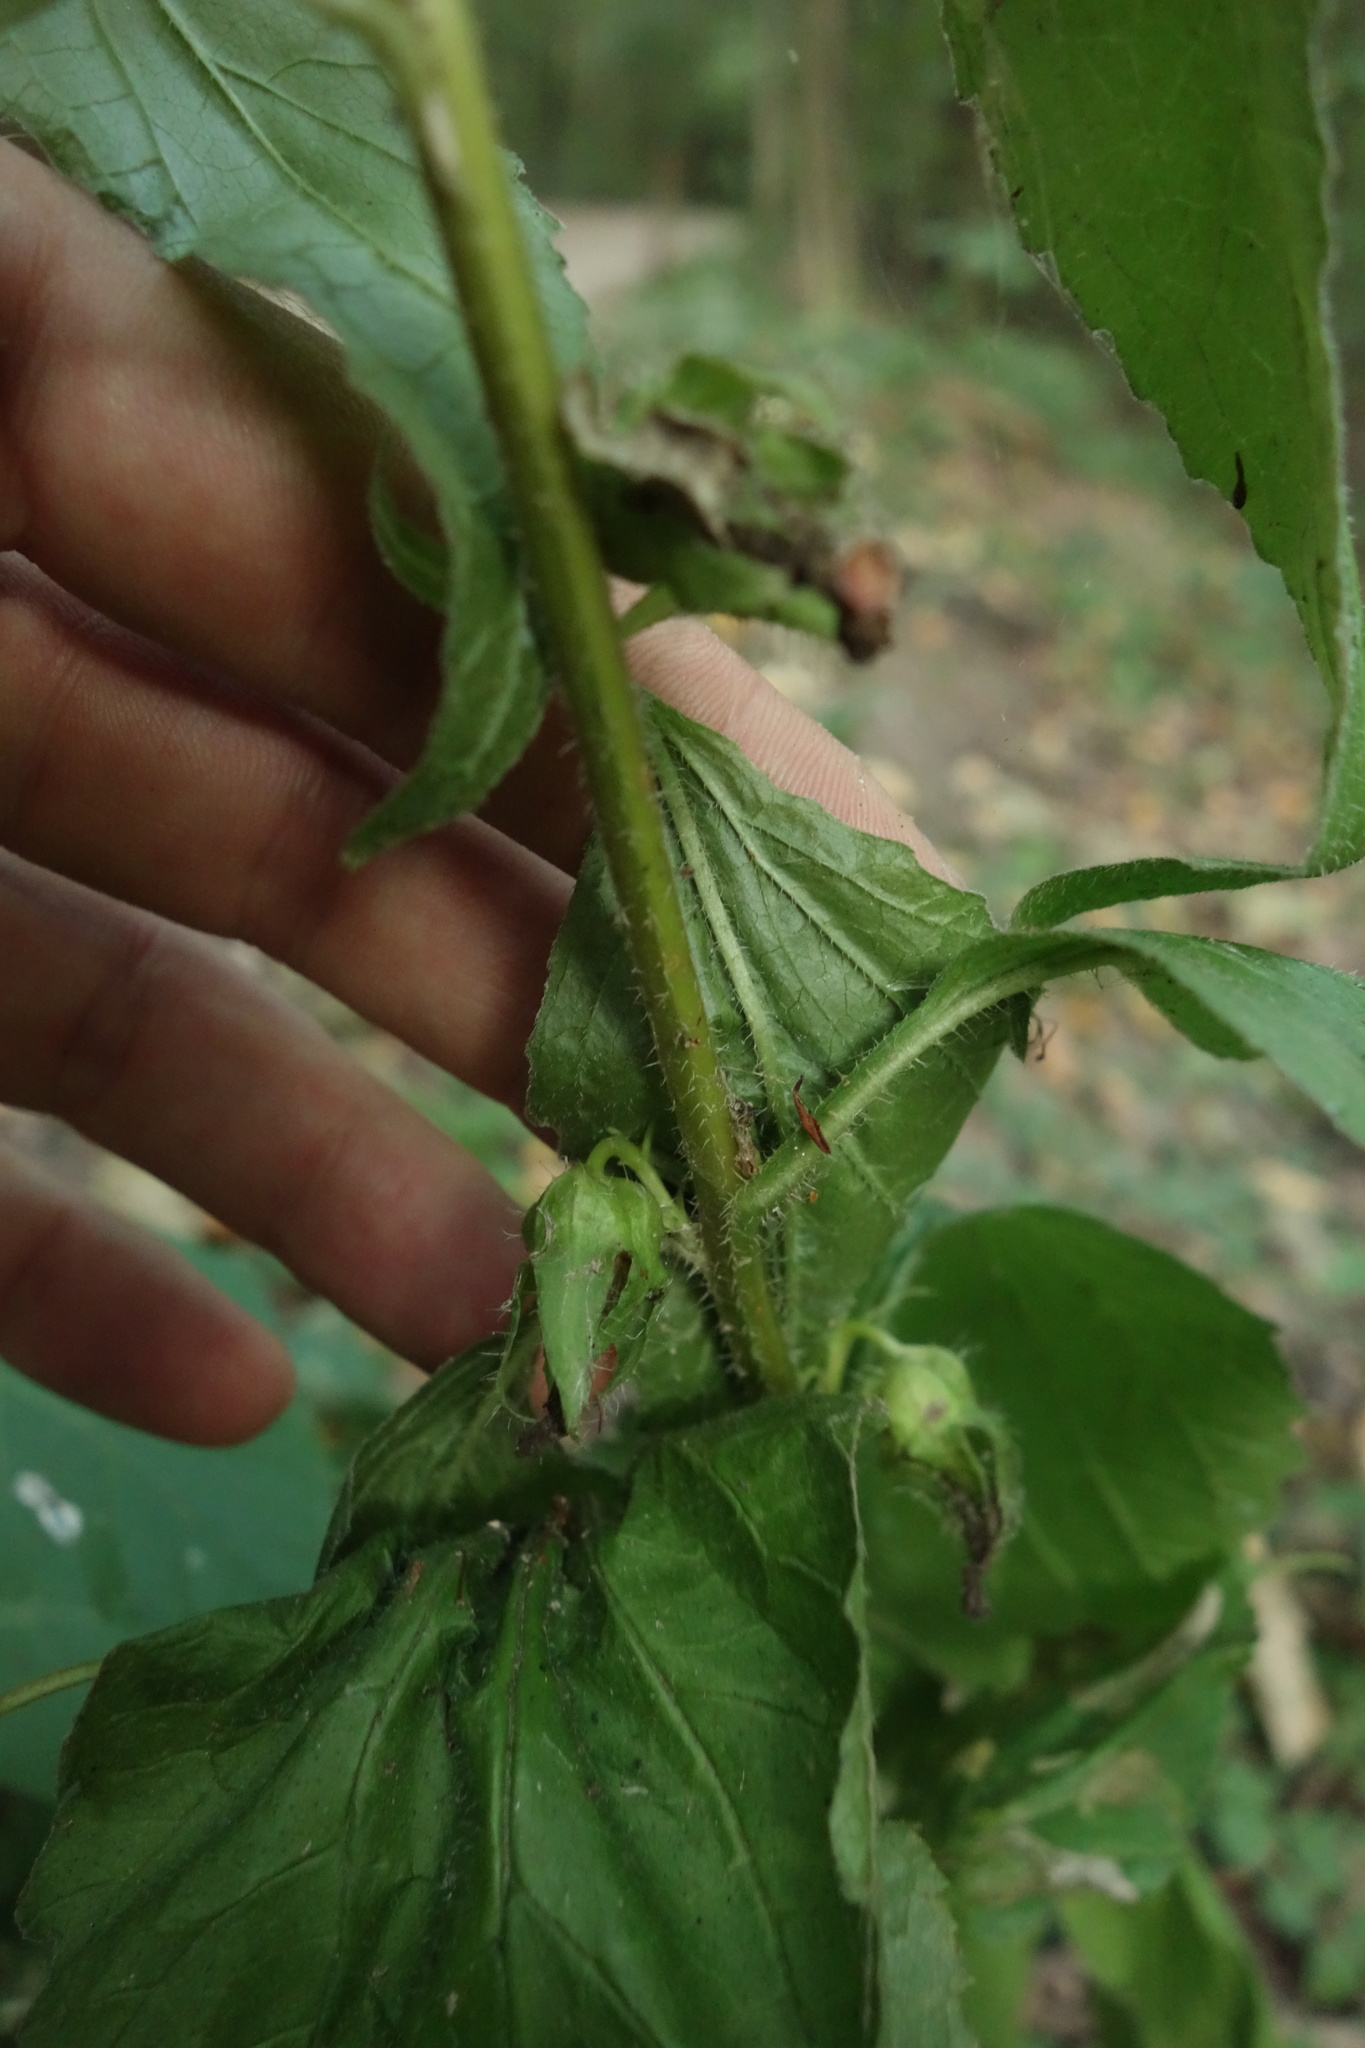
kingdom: Plantae
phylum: Tracheophyta
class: Magnoliopsida
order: Asterales
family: Campanulaceae
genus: Campanula
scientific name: Campanula trachelium
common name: Nettle-leaved bellflower
